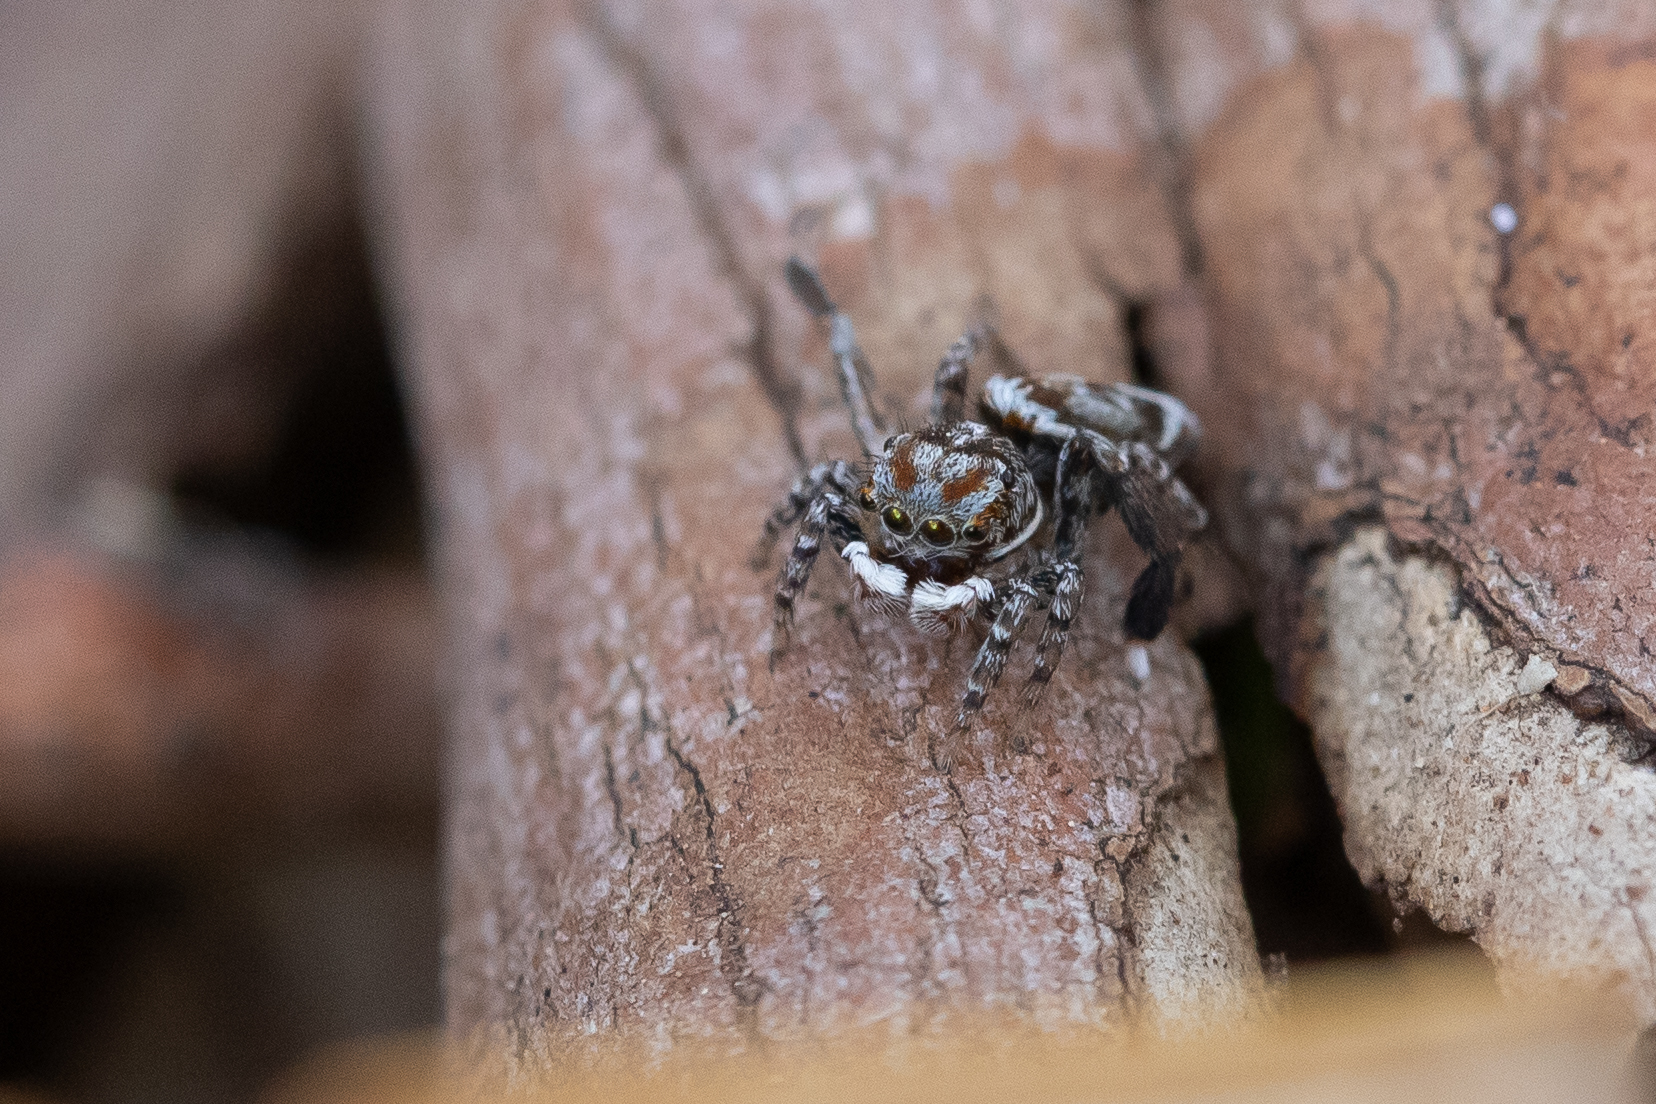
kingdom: Animalia
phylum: Arthropoda
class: Arachnida
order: Araneae
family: Salticidae
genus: Maratus
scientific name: Maratus leo
